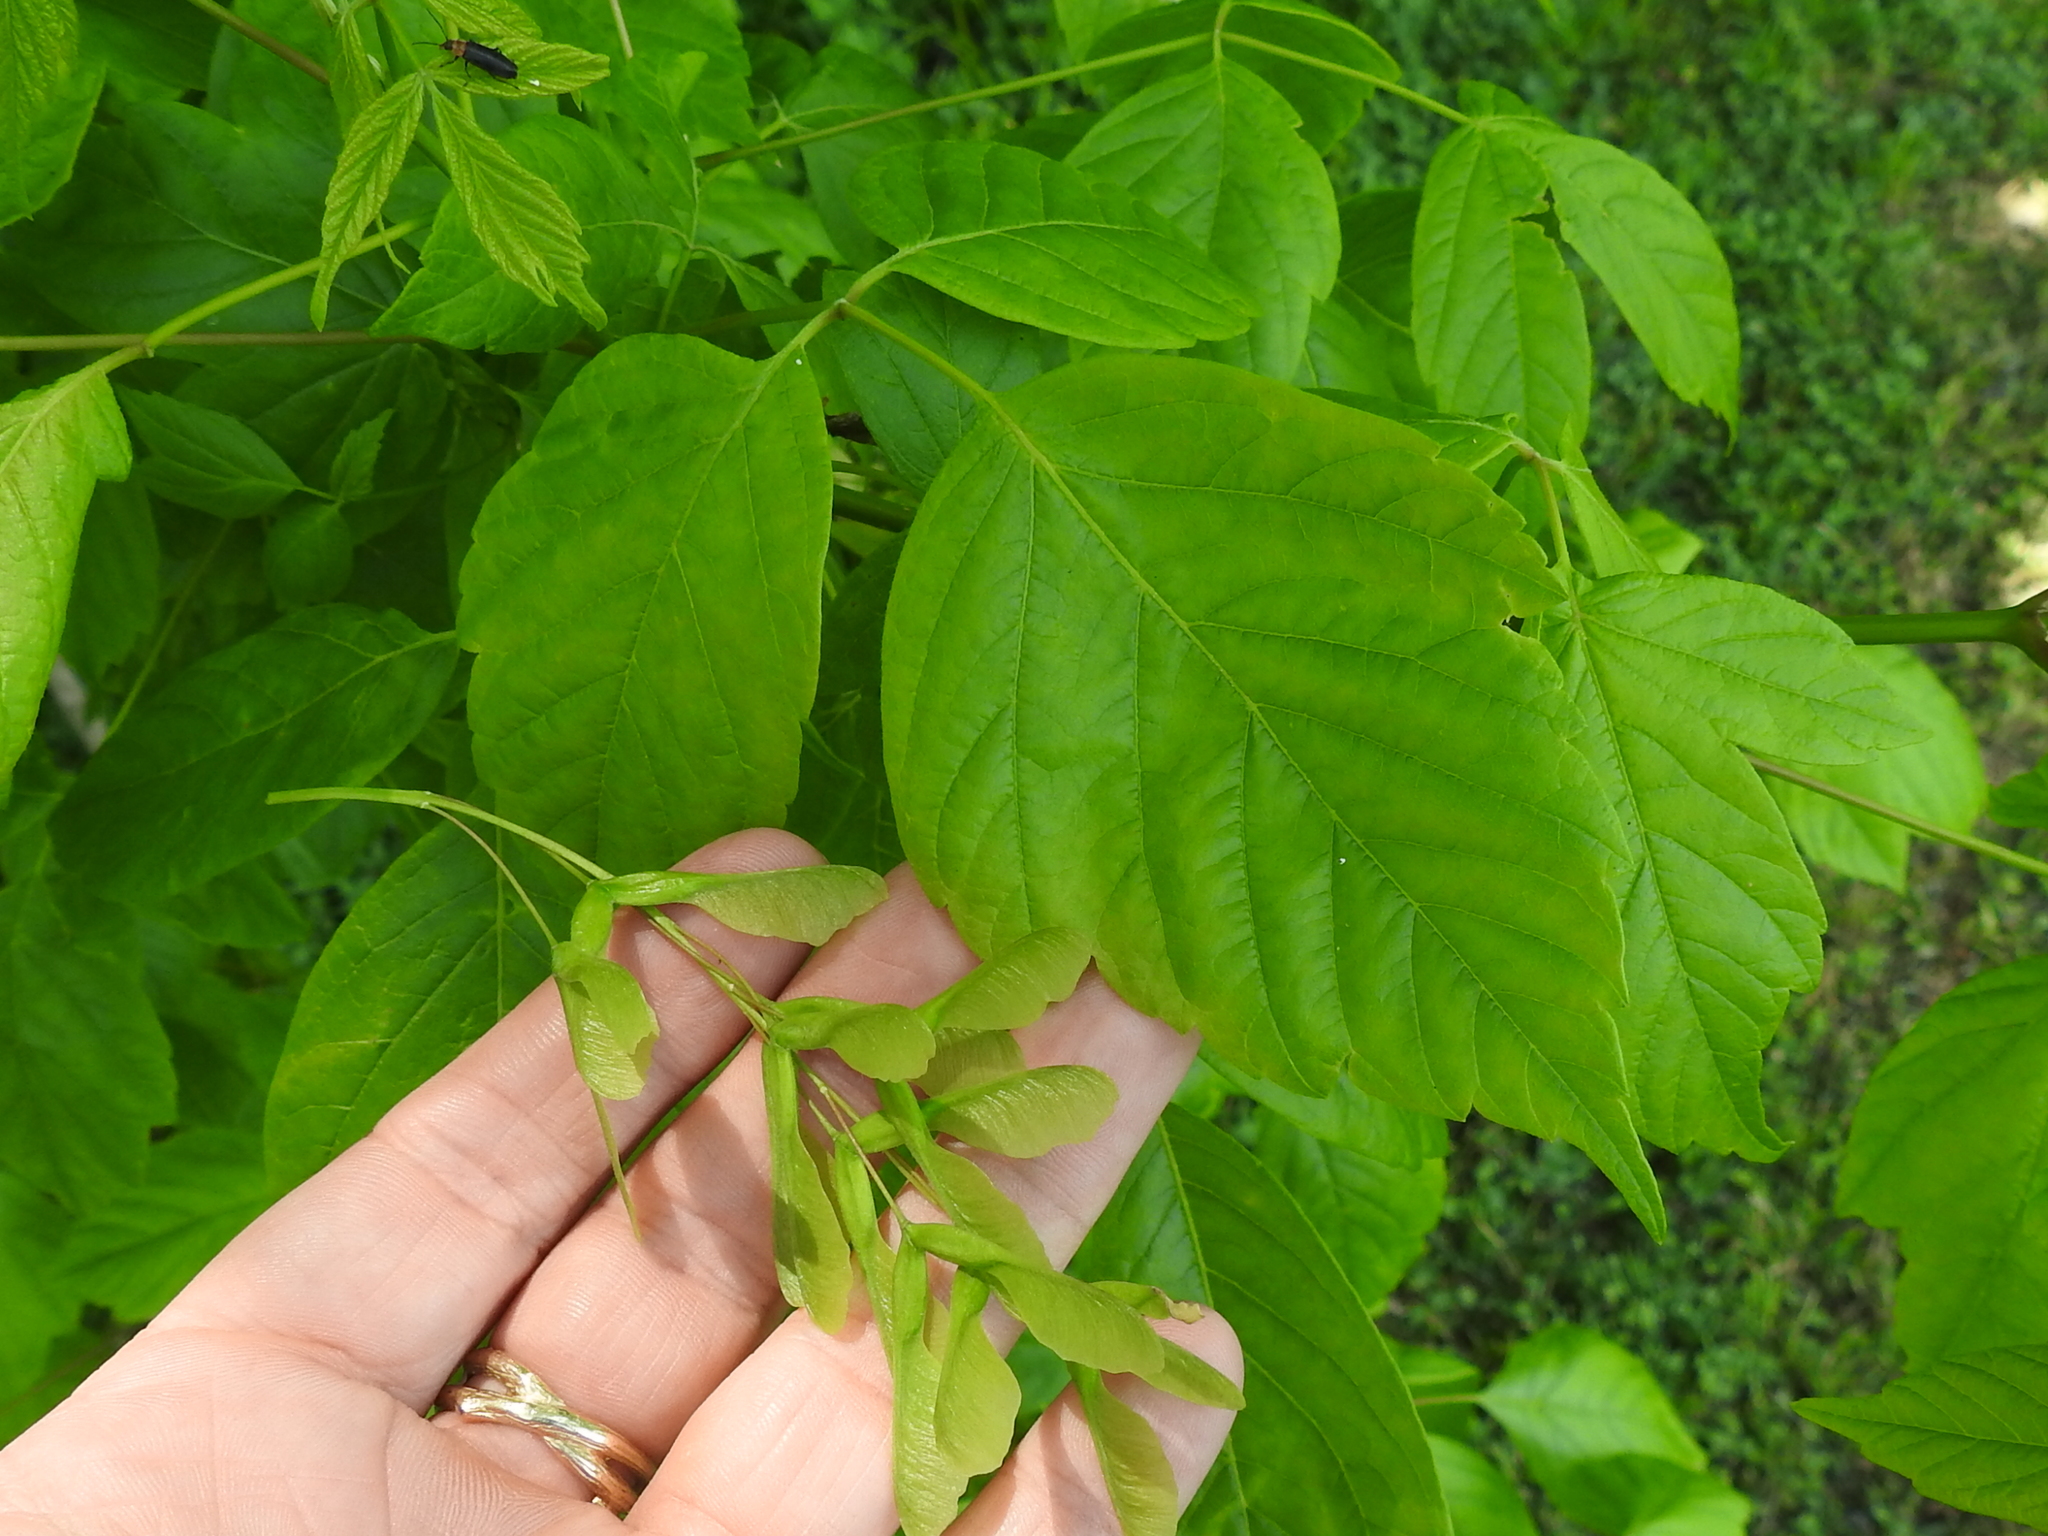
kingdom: Plantae
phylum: Tracheophyta
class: Magnoliopsida
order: Sapindales
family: Sapindaceae
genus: Acer
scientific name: Acer negundo
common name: Ashleaf maple
